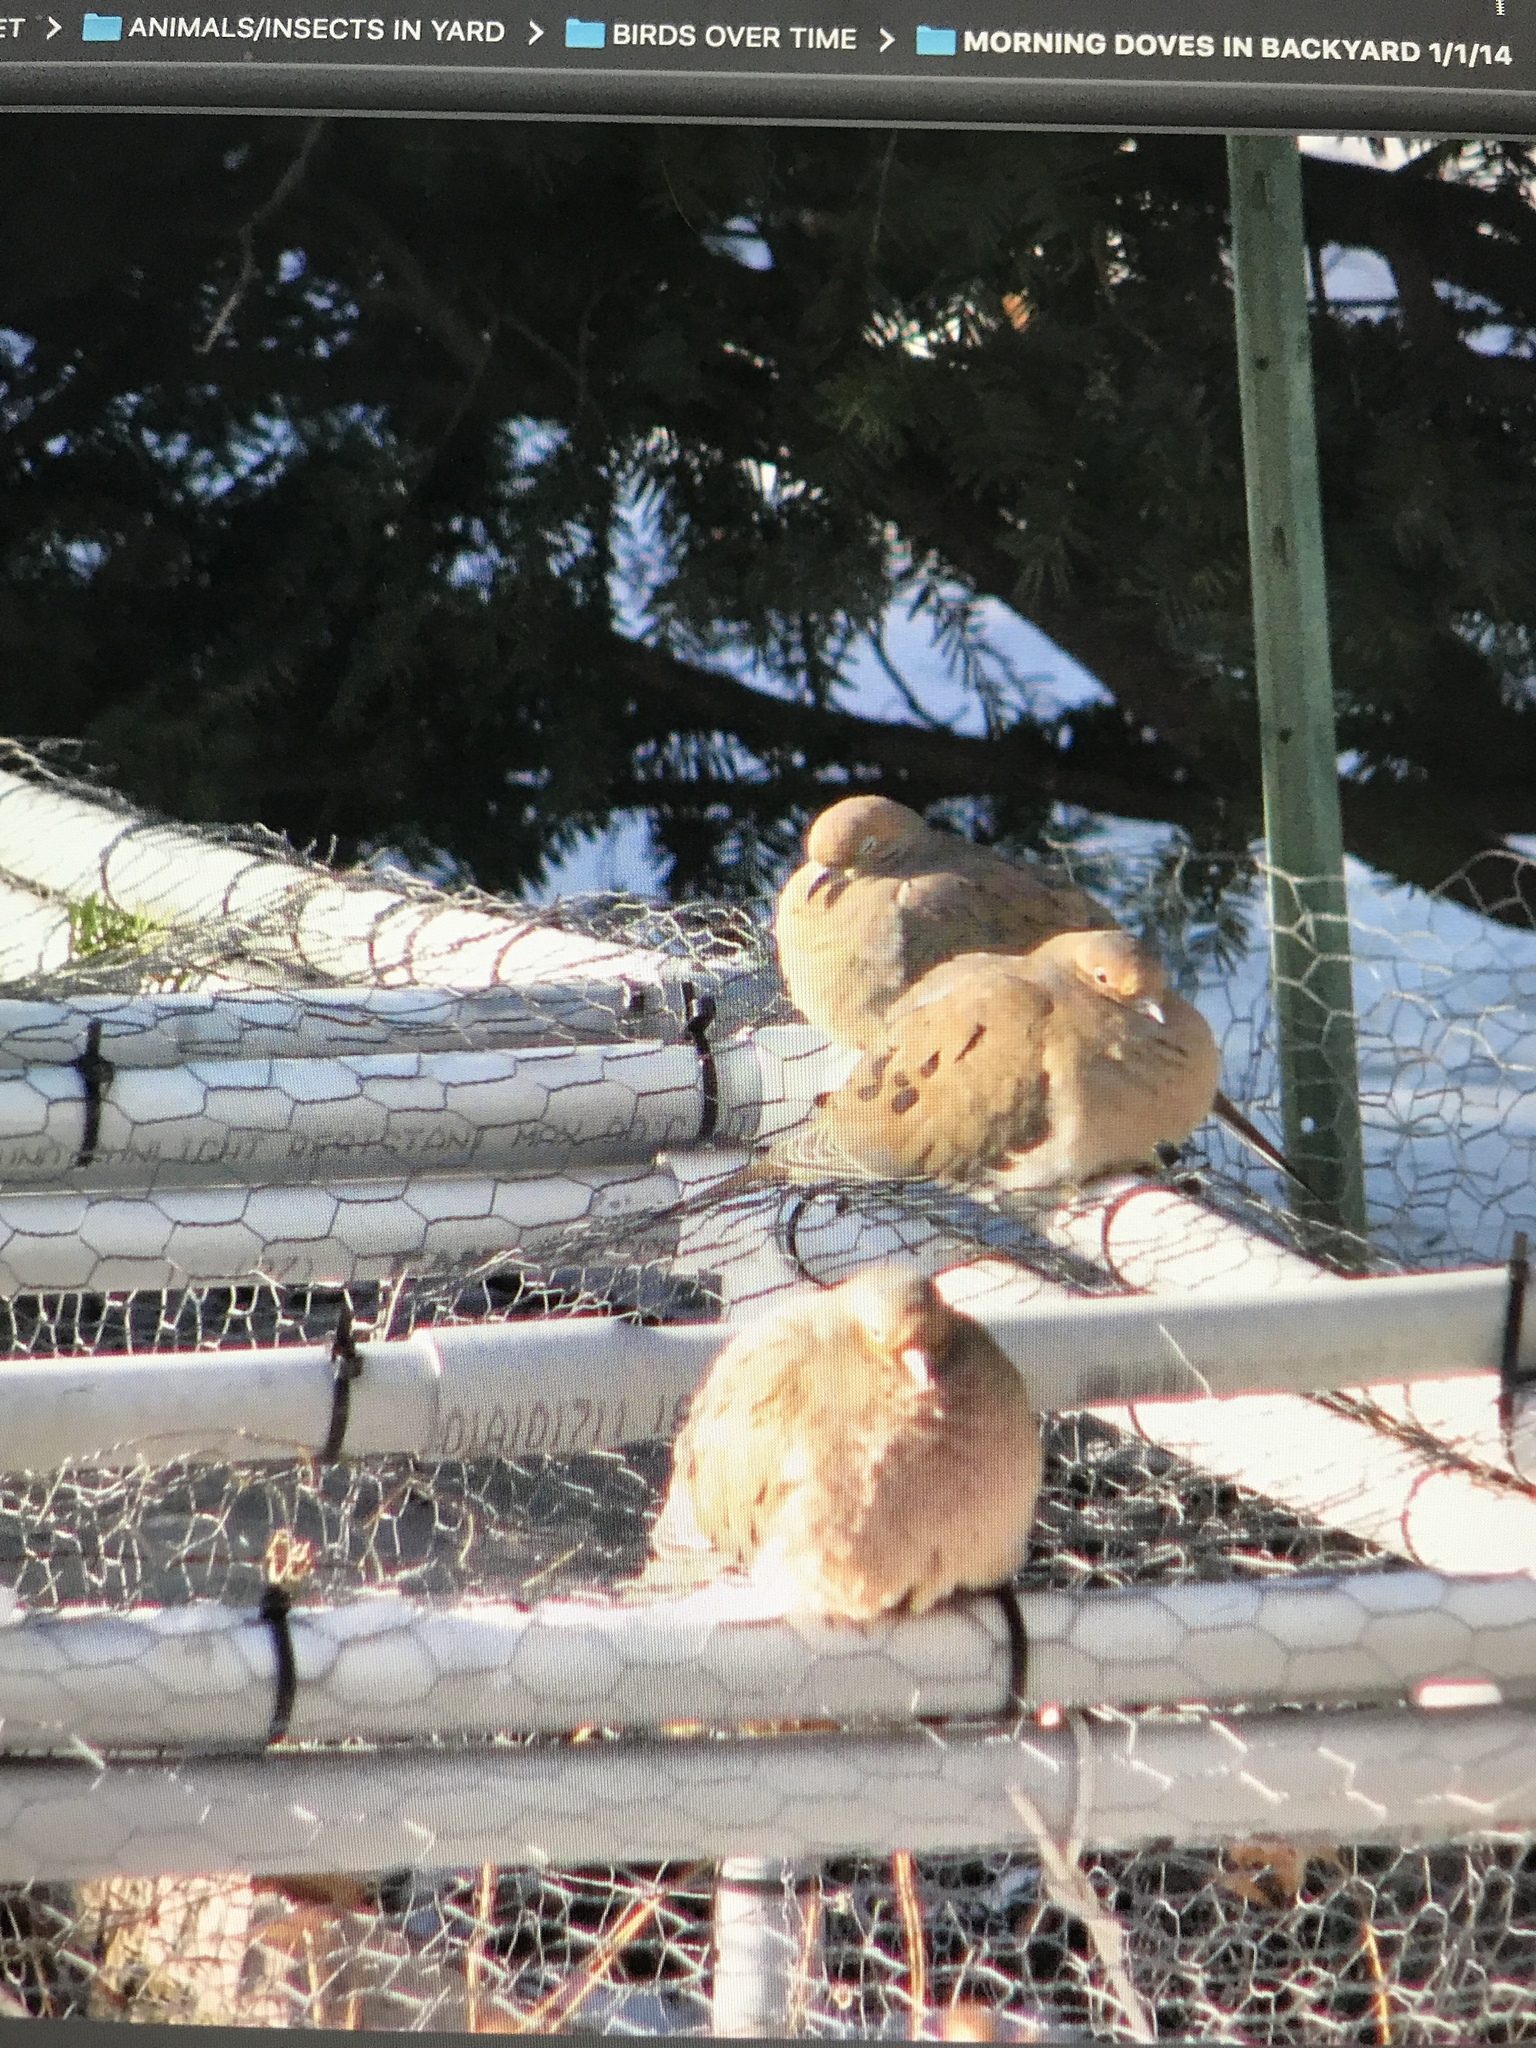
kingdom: Animalia
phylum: Chordata
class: Aves
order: Columbiformes
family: Columbidae
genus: Zenaida
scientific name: Zenaida macroura
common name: Mourning dove
